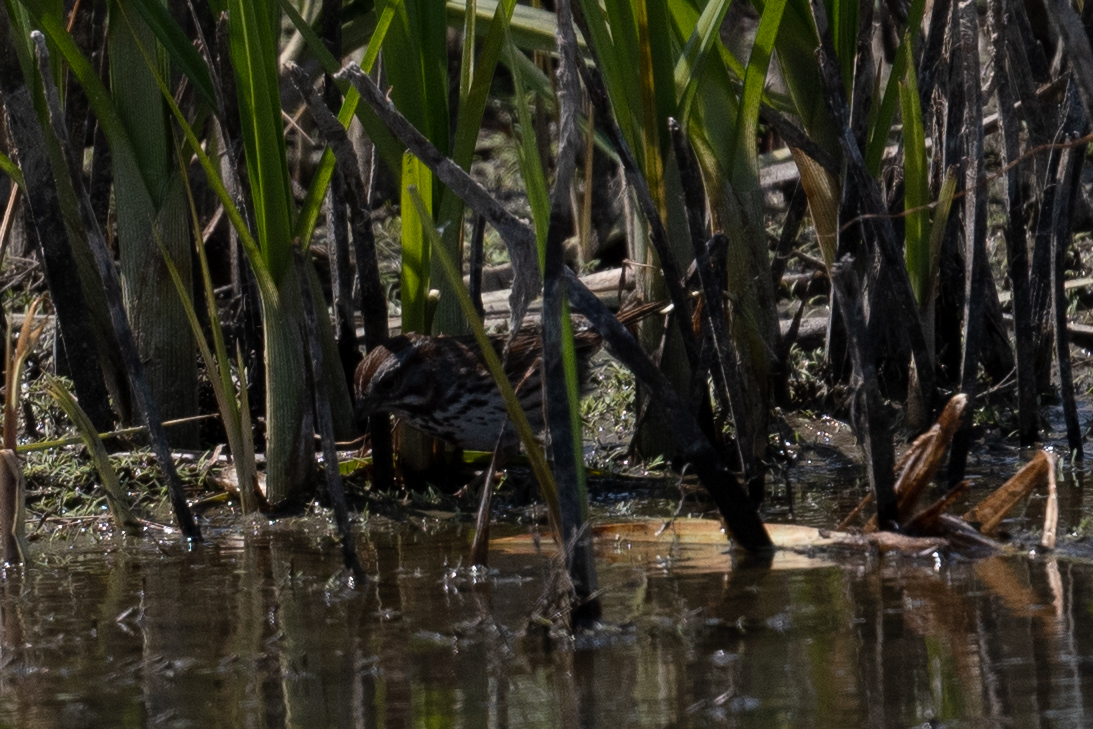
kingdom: Animalia
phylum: Chordata
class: Aves
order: Passeriformes
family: Passerellidae
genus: Melospiza
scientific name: Melospiza melodia
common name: Song sparrow
